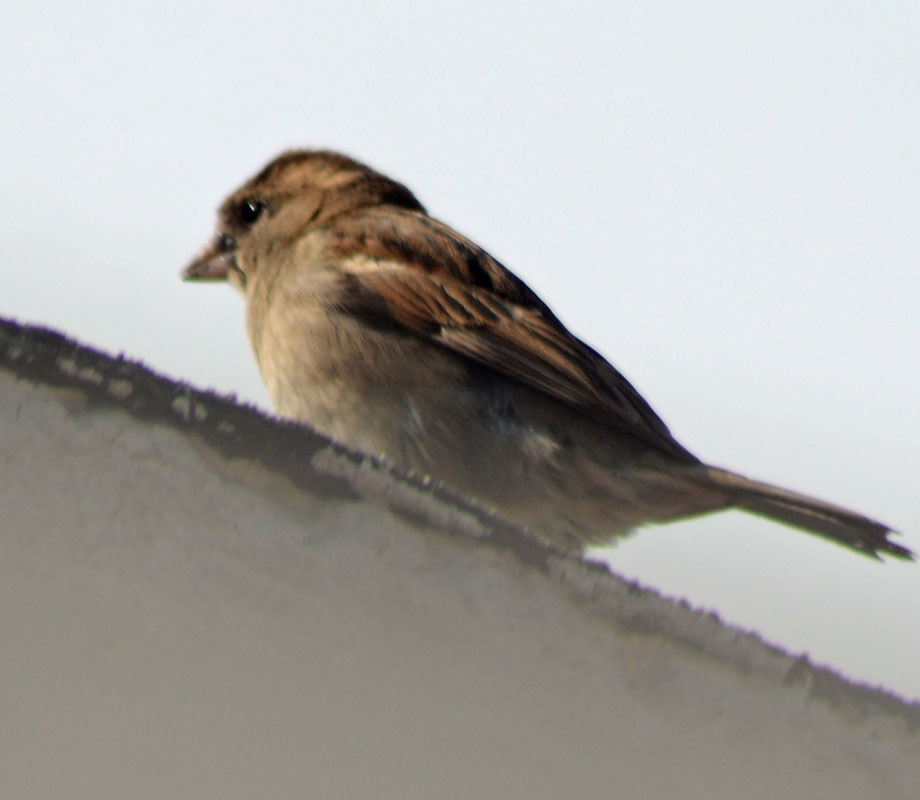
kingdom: Animalia
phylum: Chordata
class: Aves
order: Passeriformes
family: Passeridae
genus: Passer
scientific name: Passer domesticus
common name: House sparrow
